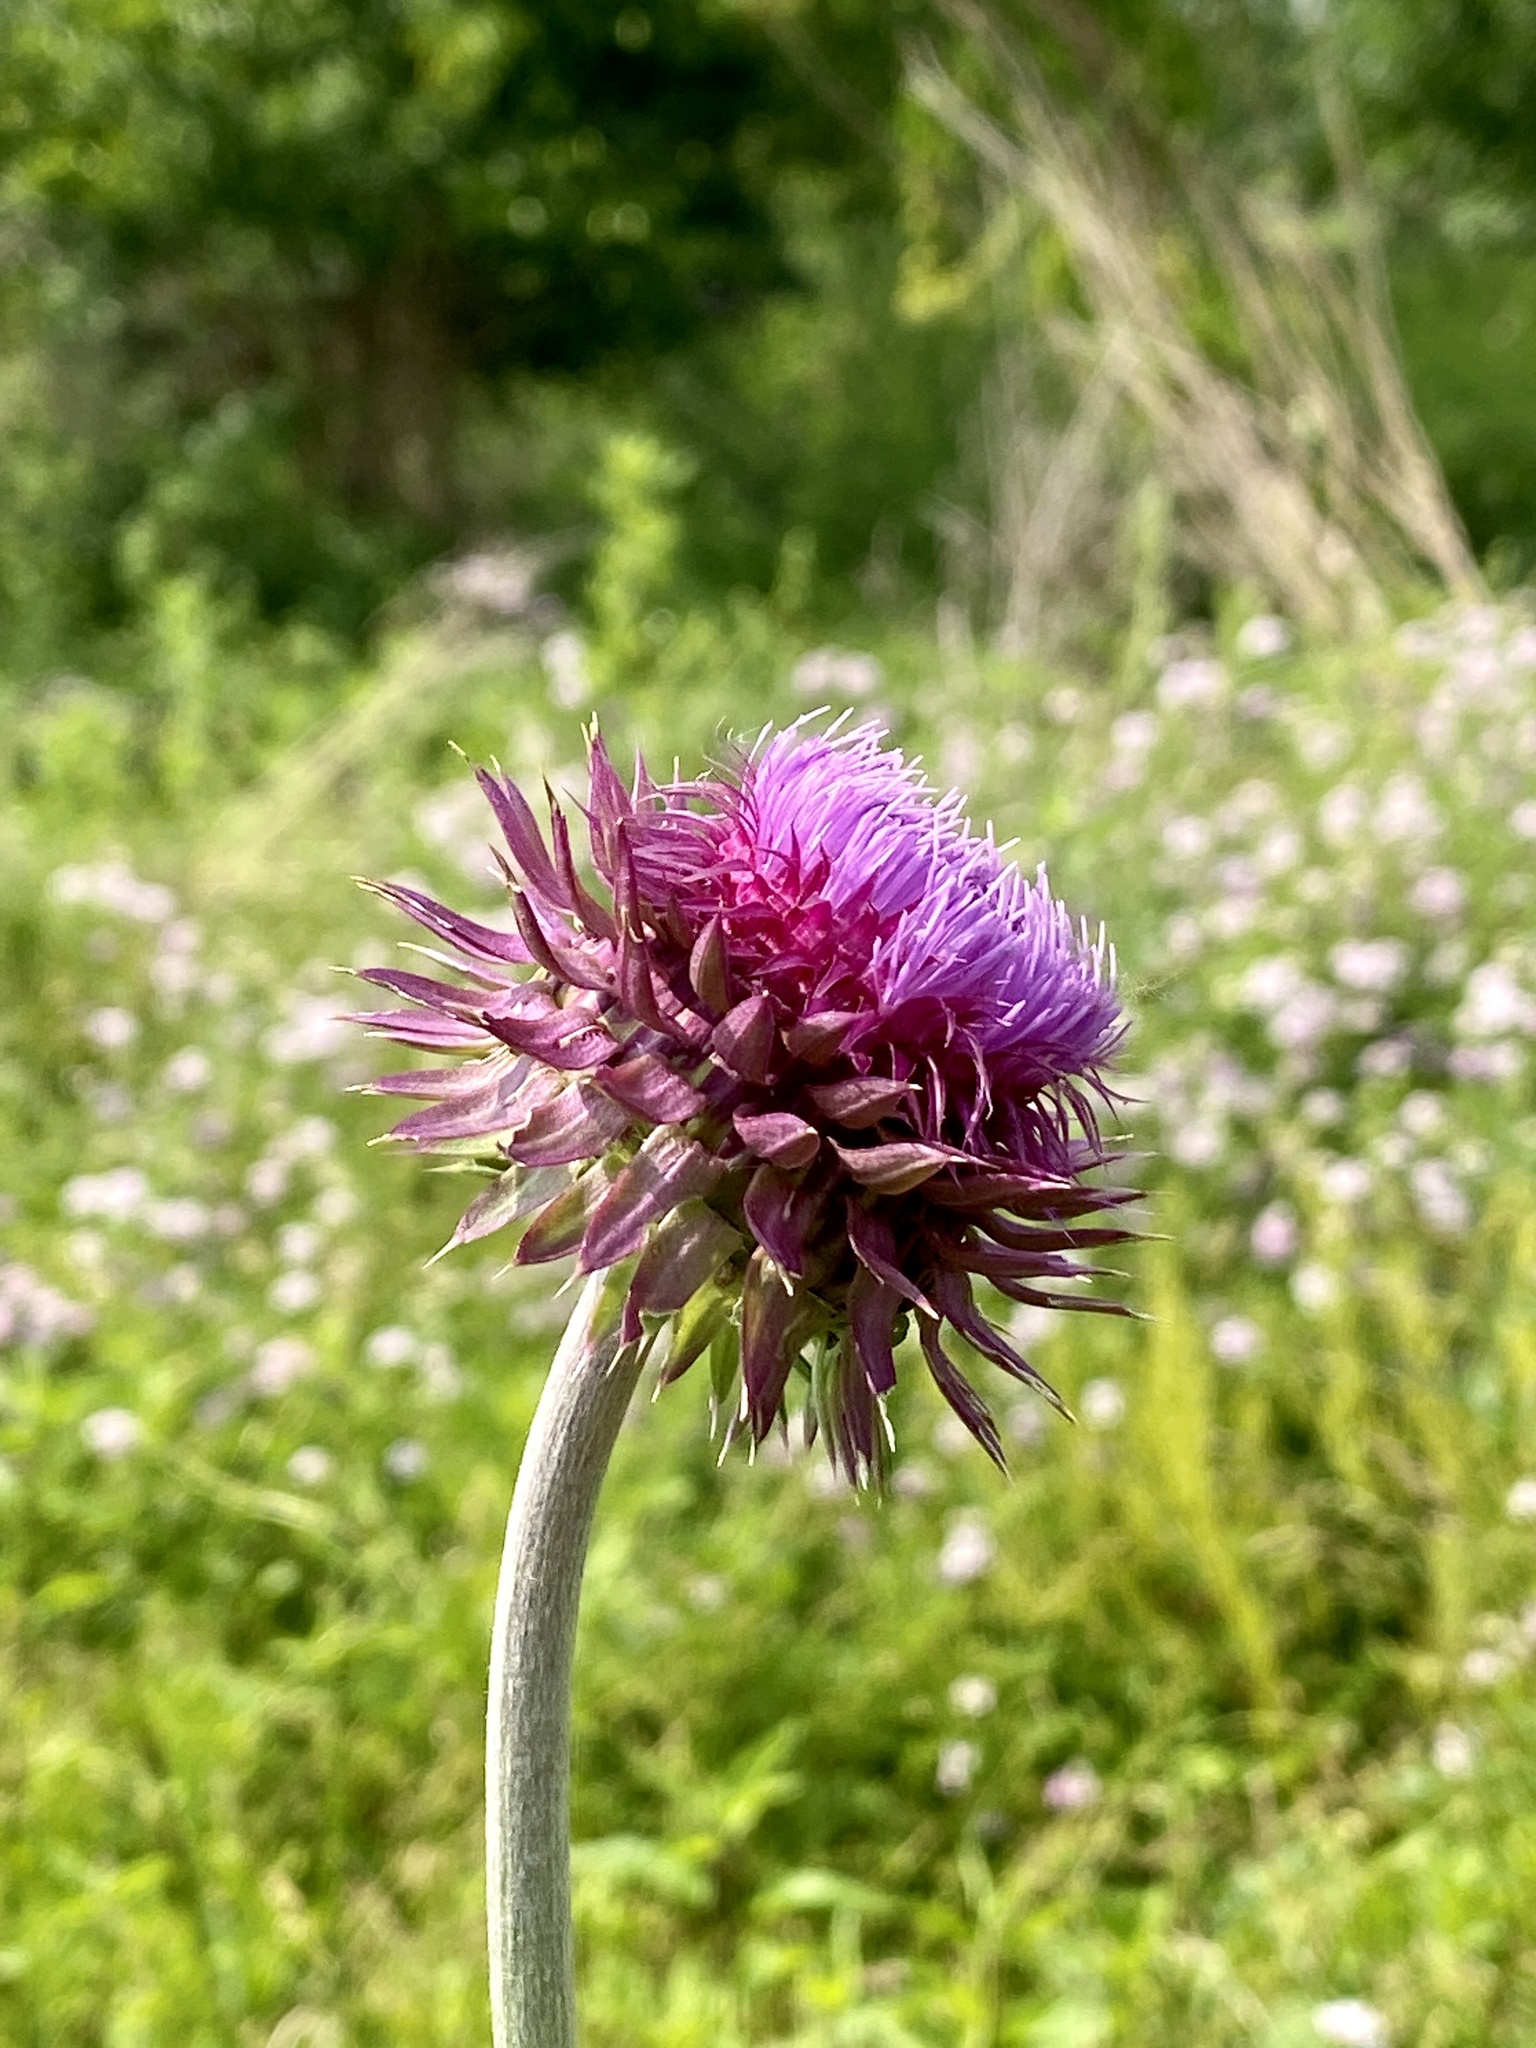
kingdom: Plantae
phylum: Tracheophyta
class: Magnoliopsida
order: Asterales
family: Asteraceae
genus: Carduus
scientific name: Carduus nutans
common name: Musk thistle
